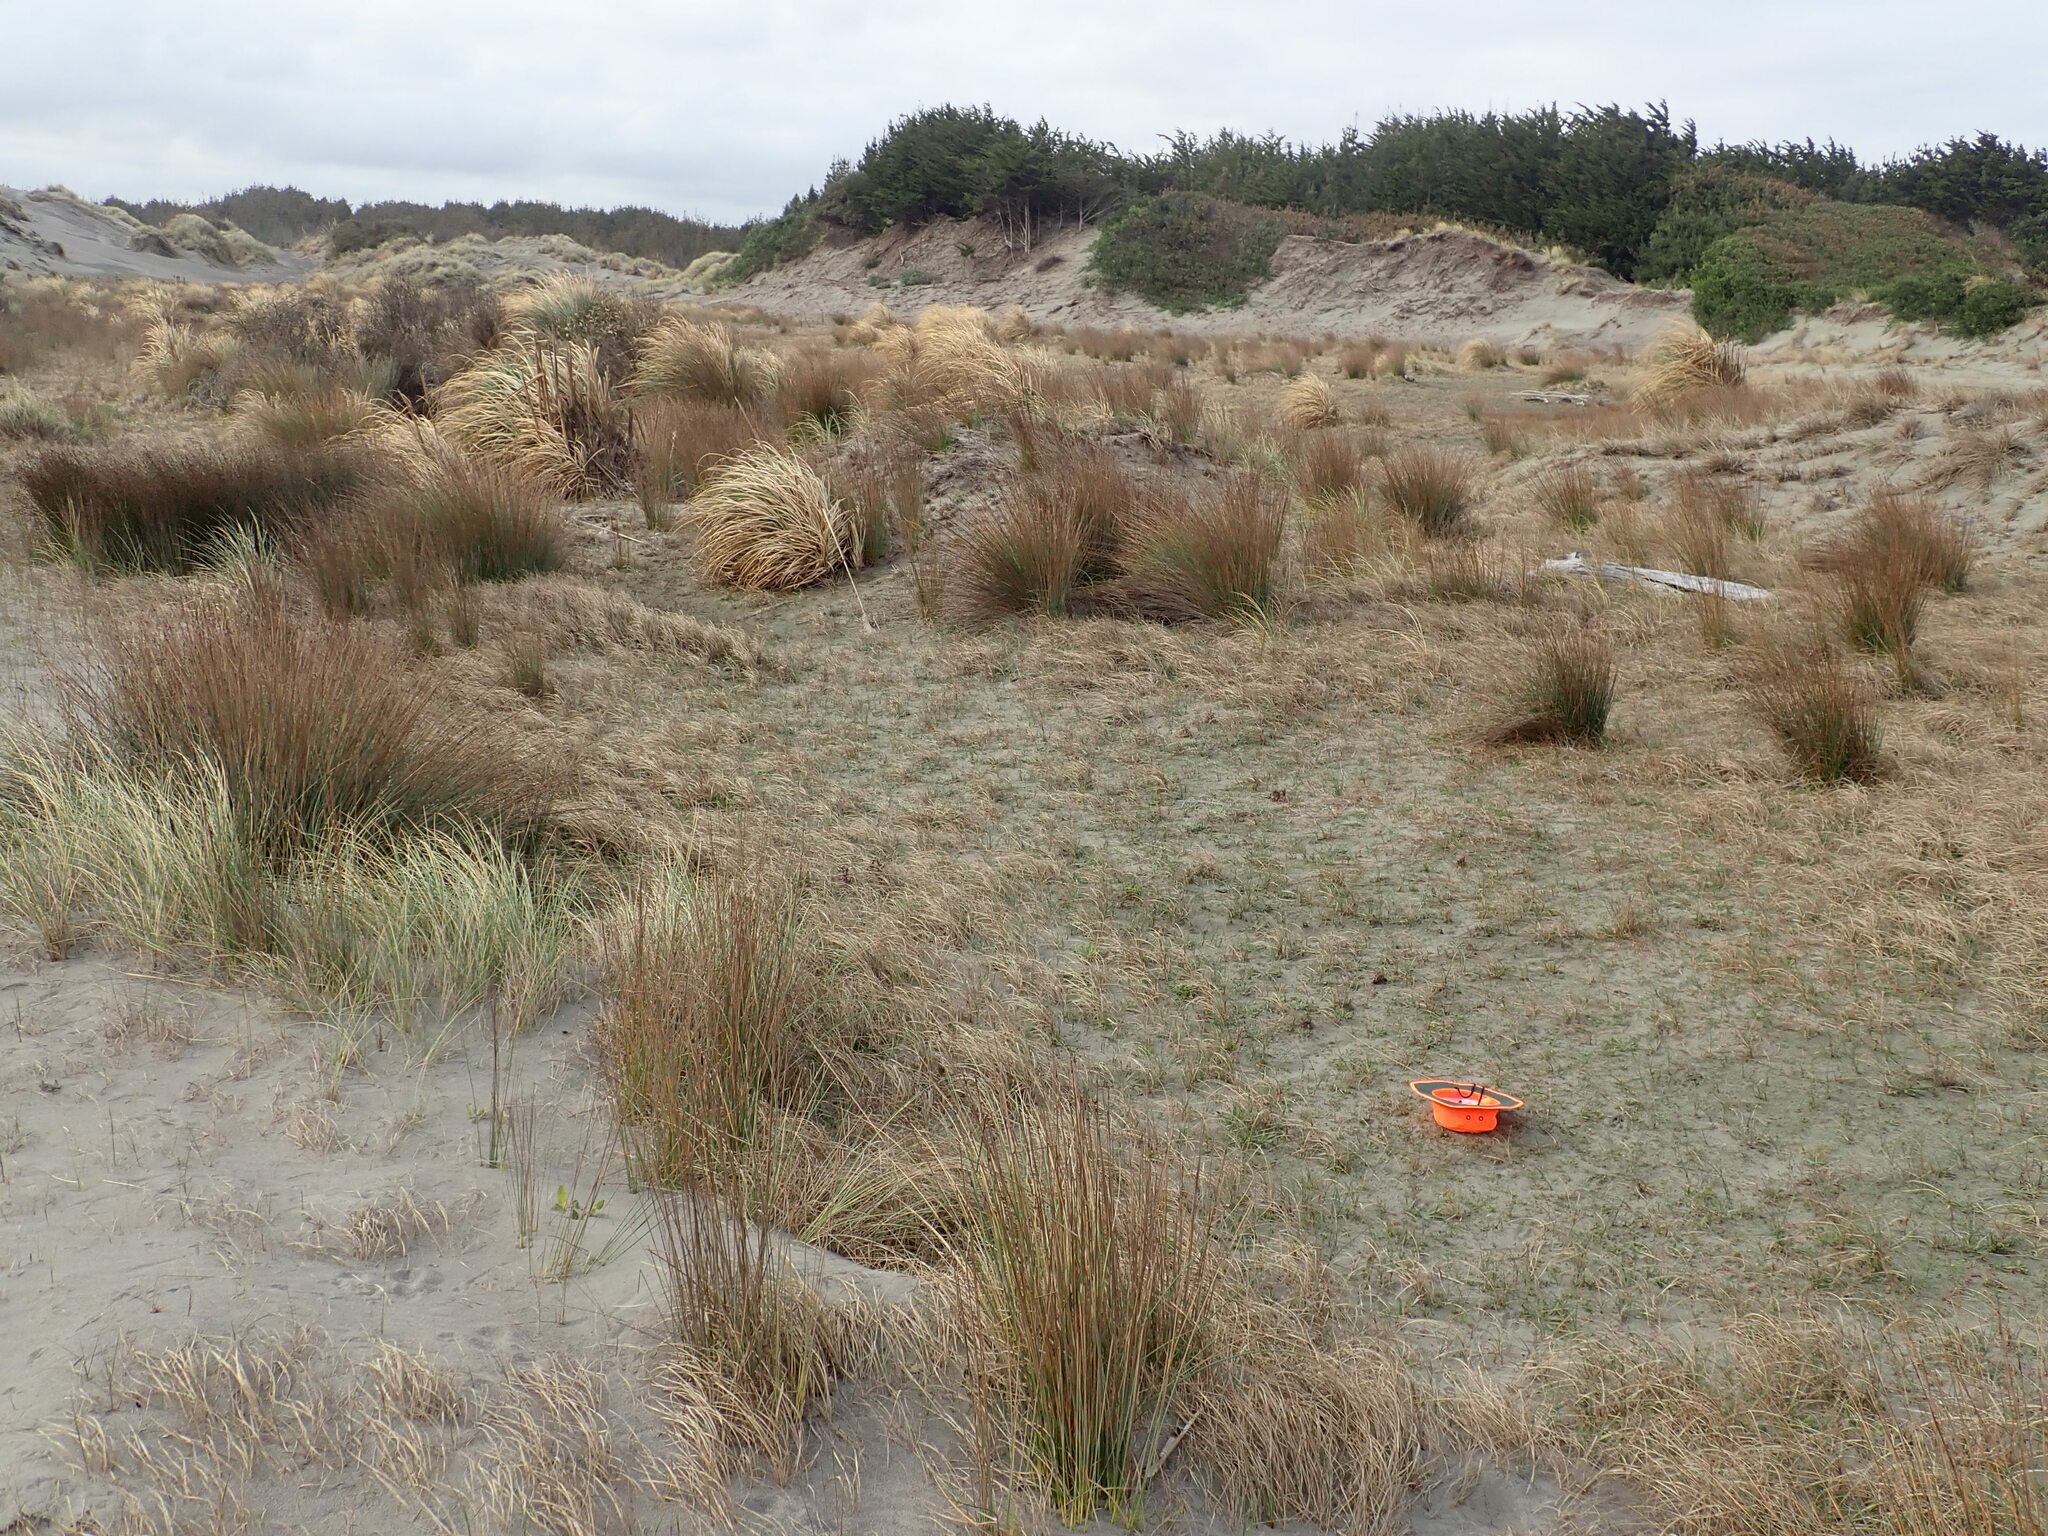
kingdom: Plantae
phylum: Tracheophyta
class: Magnoliopsida
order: Asterales
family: Campanulaceae
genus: Lobelia
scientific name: Lobelia anceps
